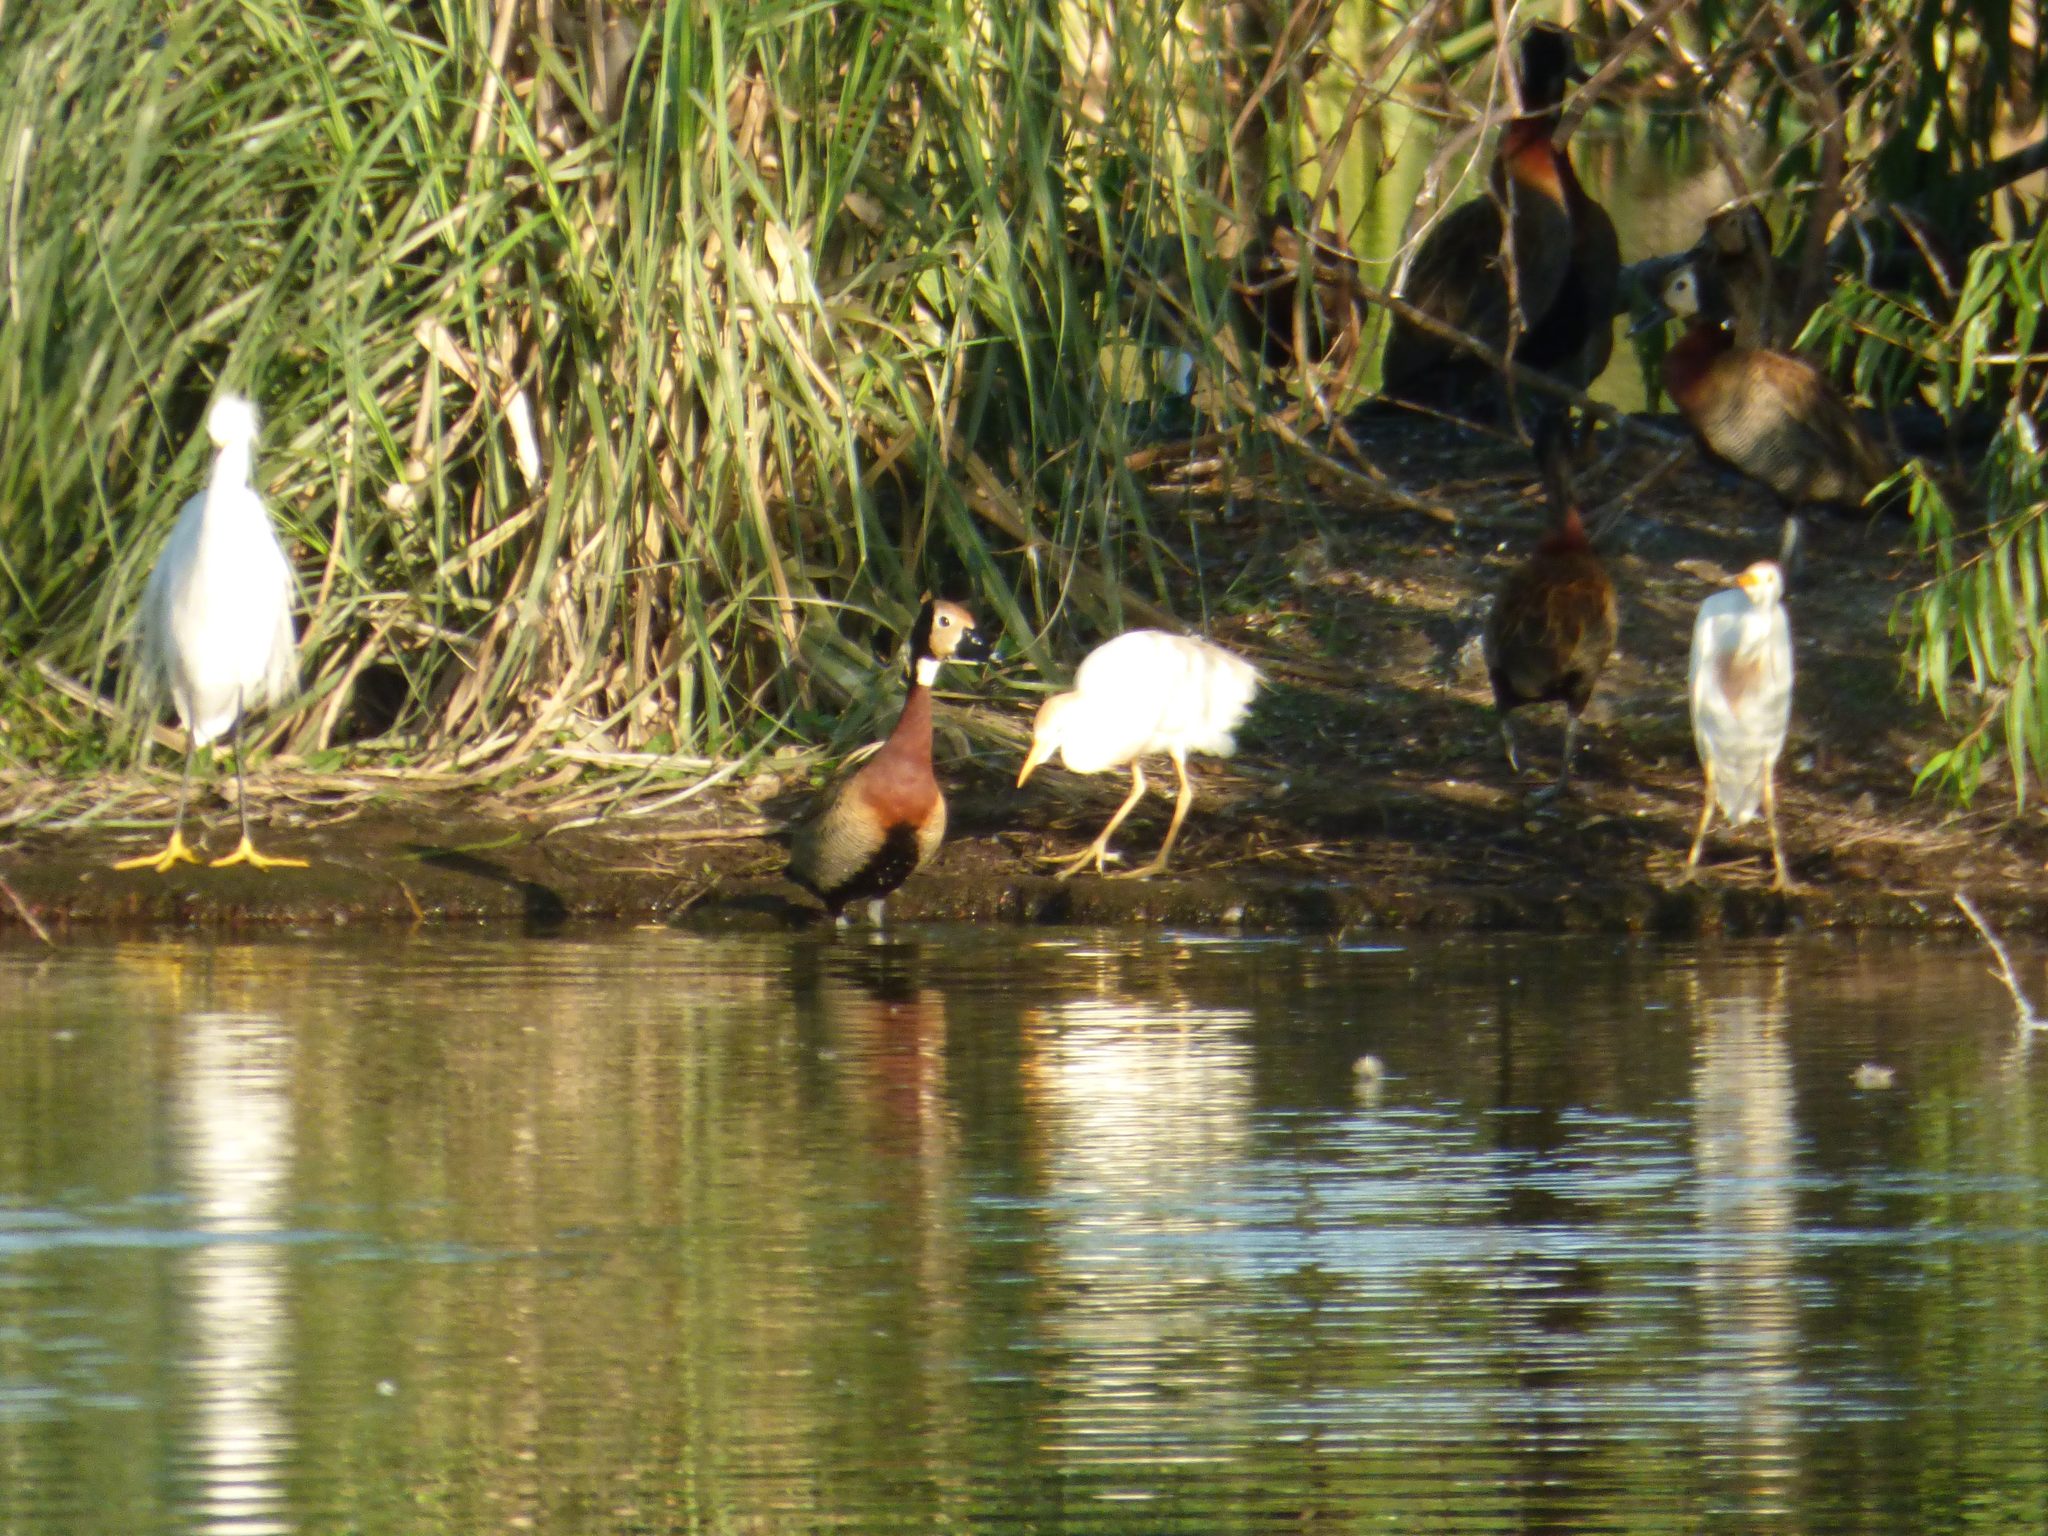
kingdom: Animalia
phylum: Chordata
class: Aves
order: Anseriformes
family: Anatidae
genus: Dendrocygna
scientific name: Dendrocygna viduata
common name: White-faced whistling duck
